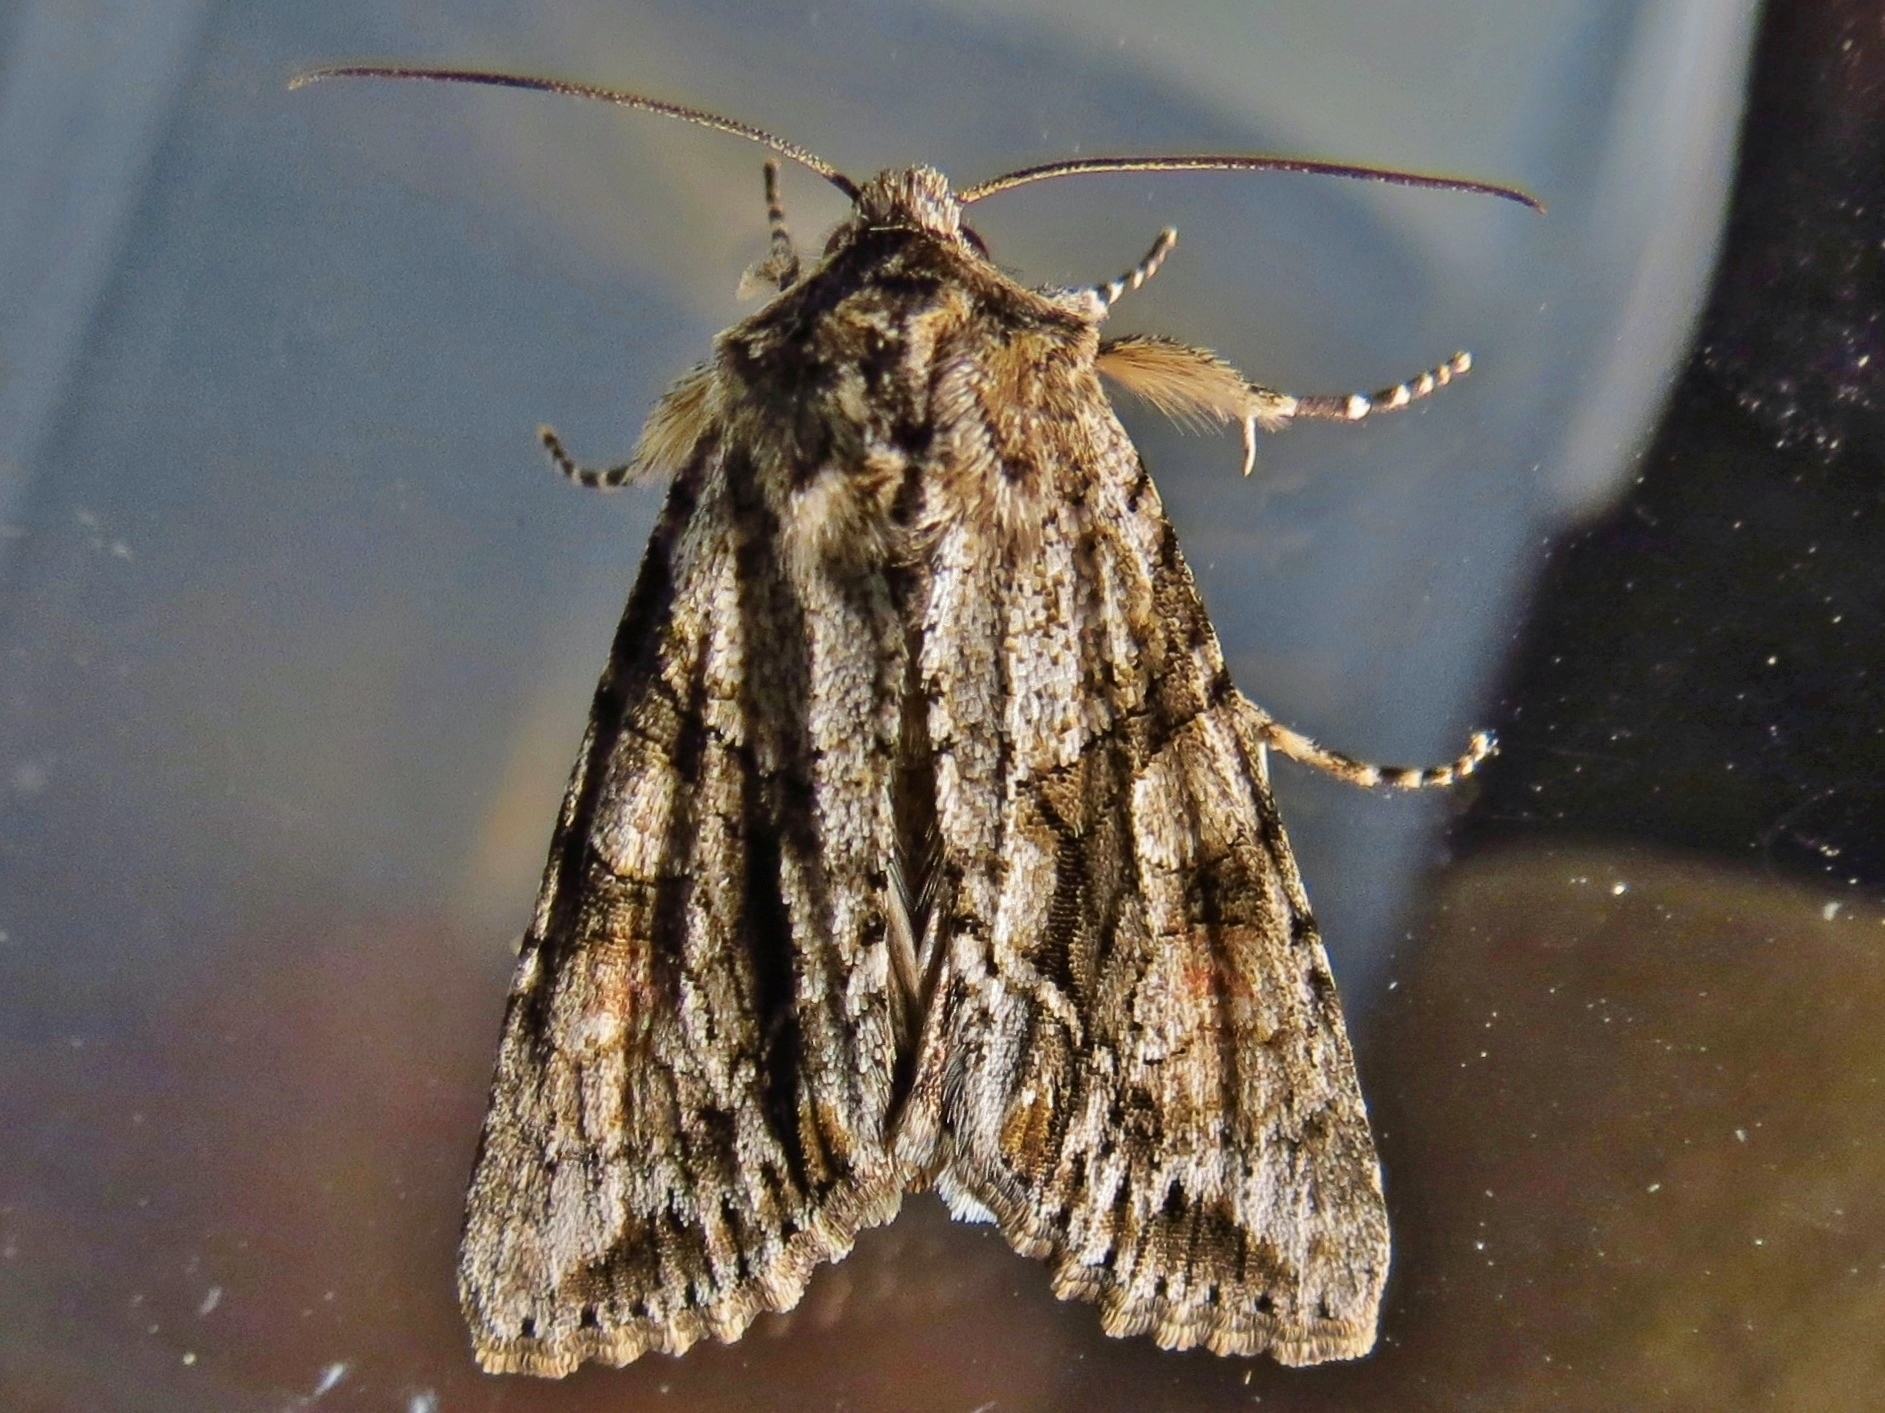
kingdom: Animalia
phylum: Arthropoda
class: Insecta
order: Lepidoptera
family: Noctuidae
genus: Achatia
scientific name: Achatia distincta
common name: Distinct quaker
